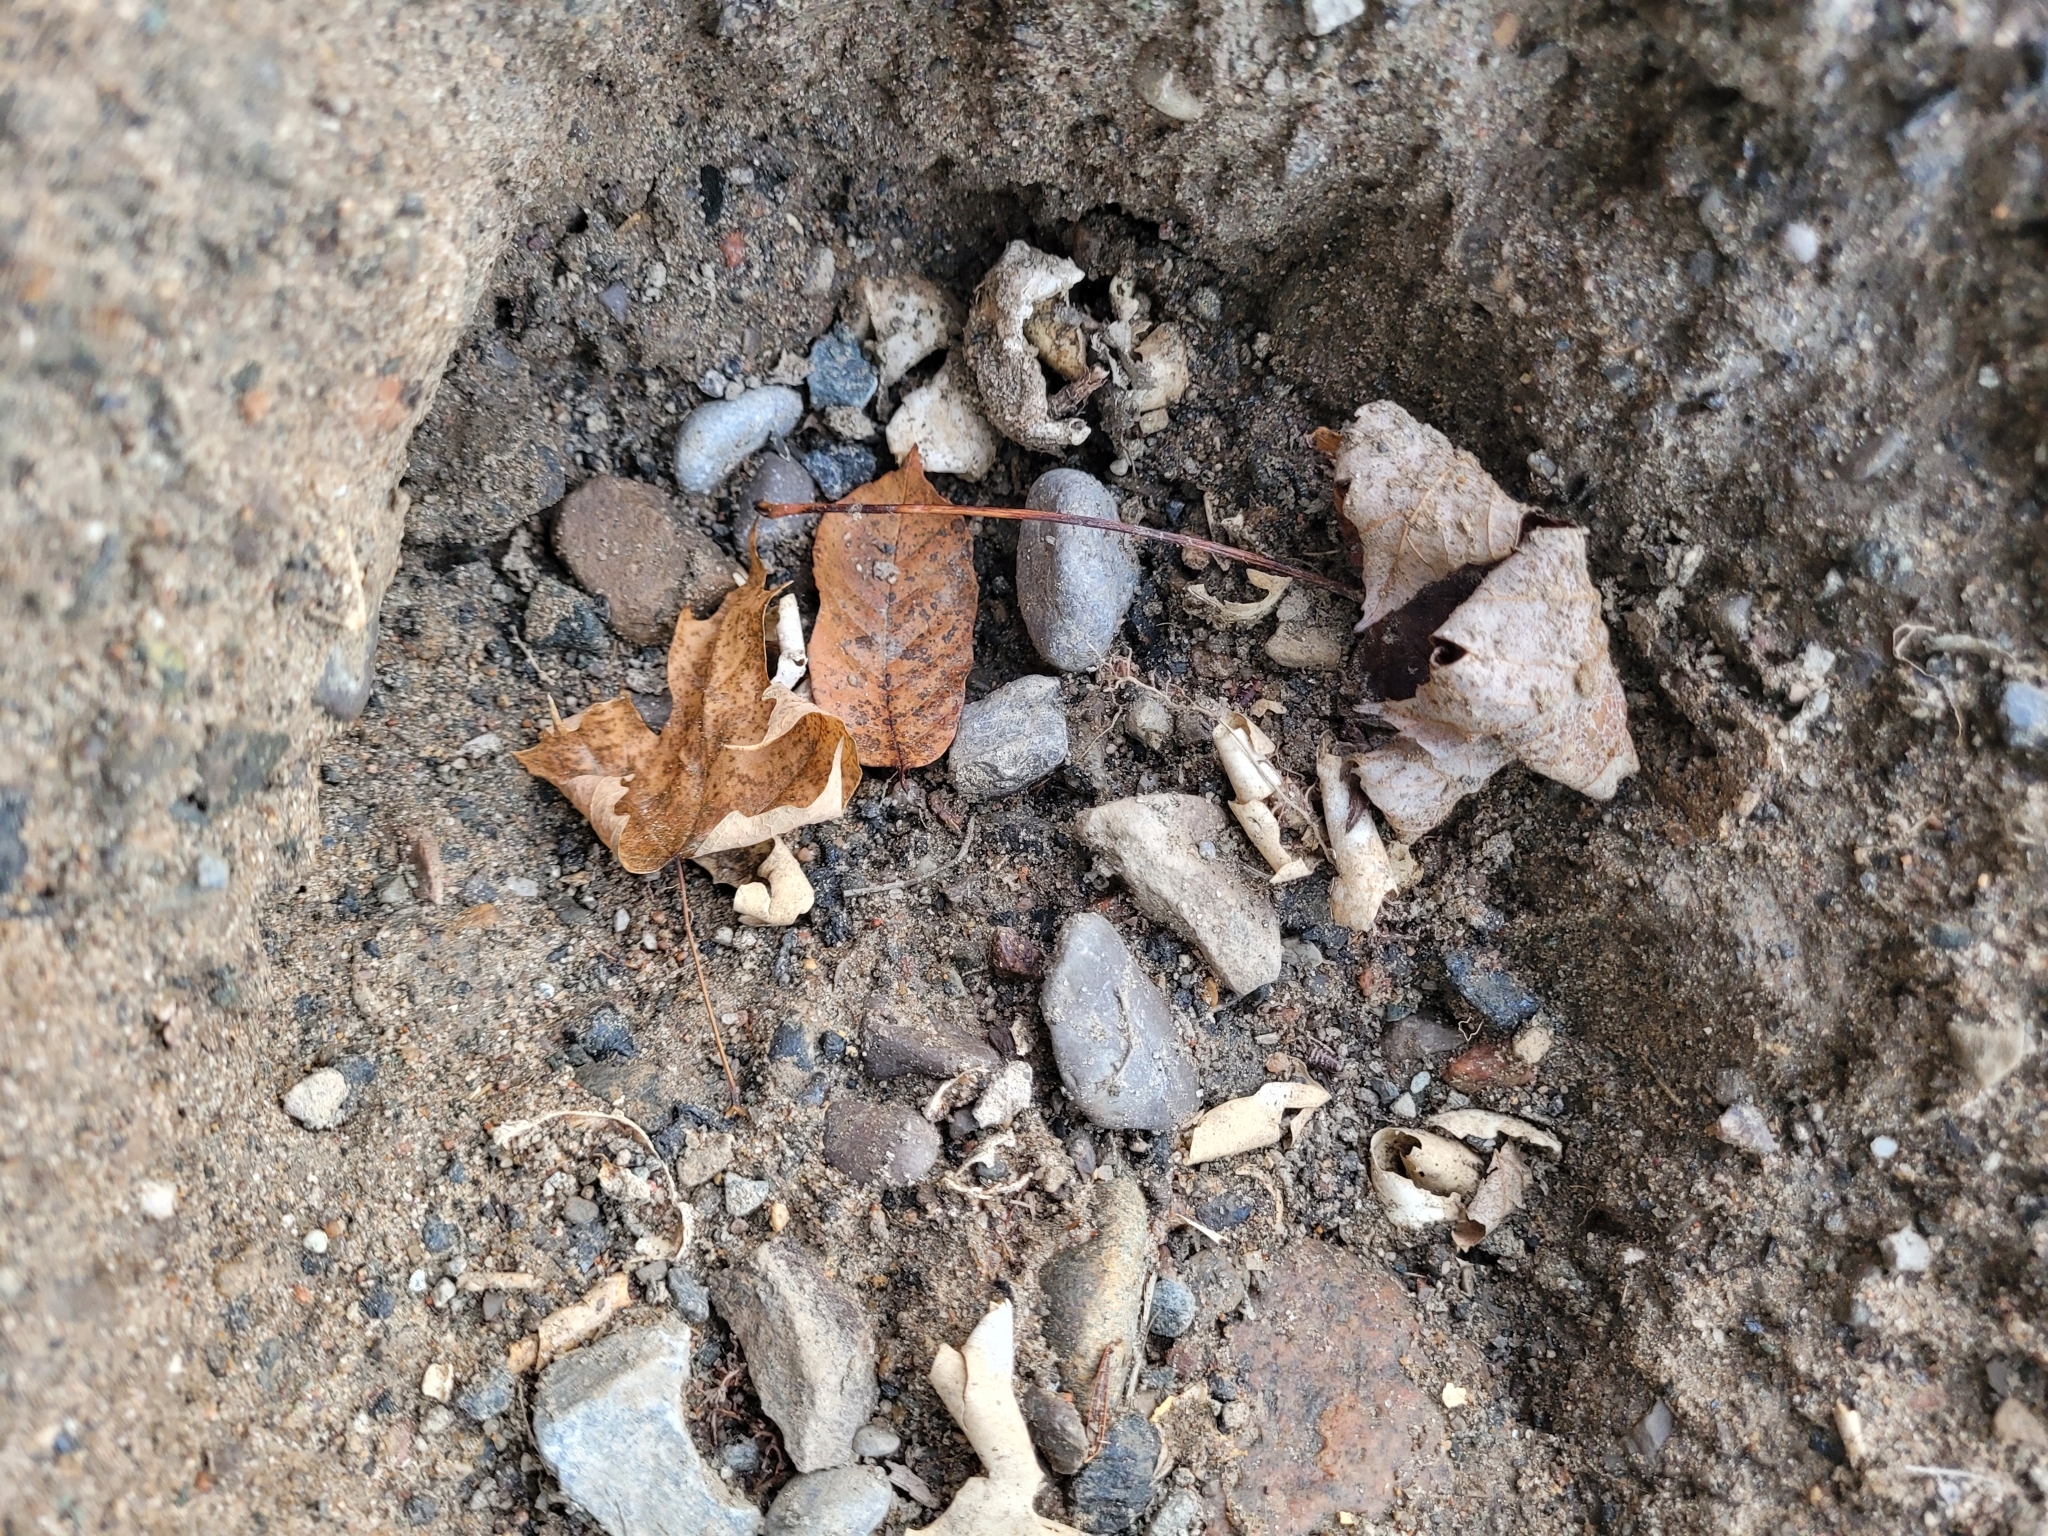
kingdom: Animalia
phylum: Chordata
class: Testudines
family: Chelydridae
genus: Chelydra
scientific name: Chelydra serpentina
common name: Common snapping turtle
